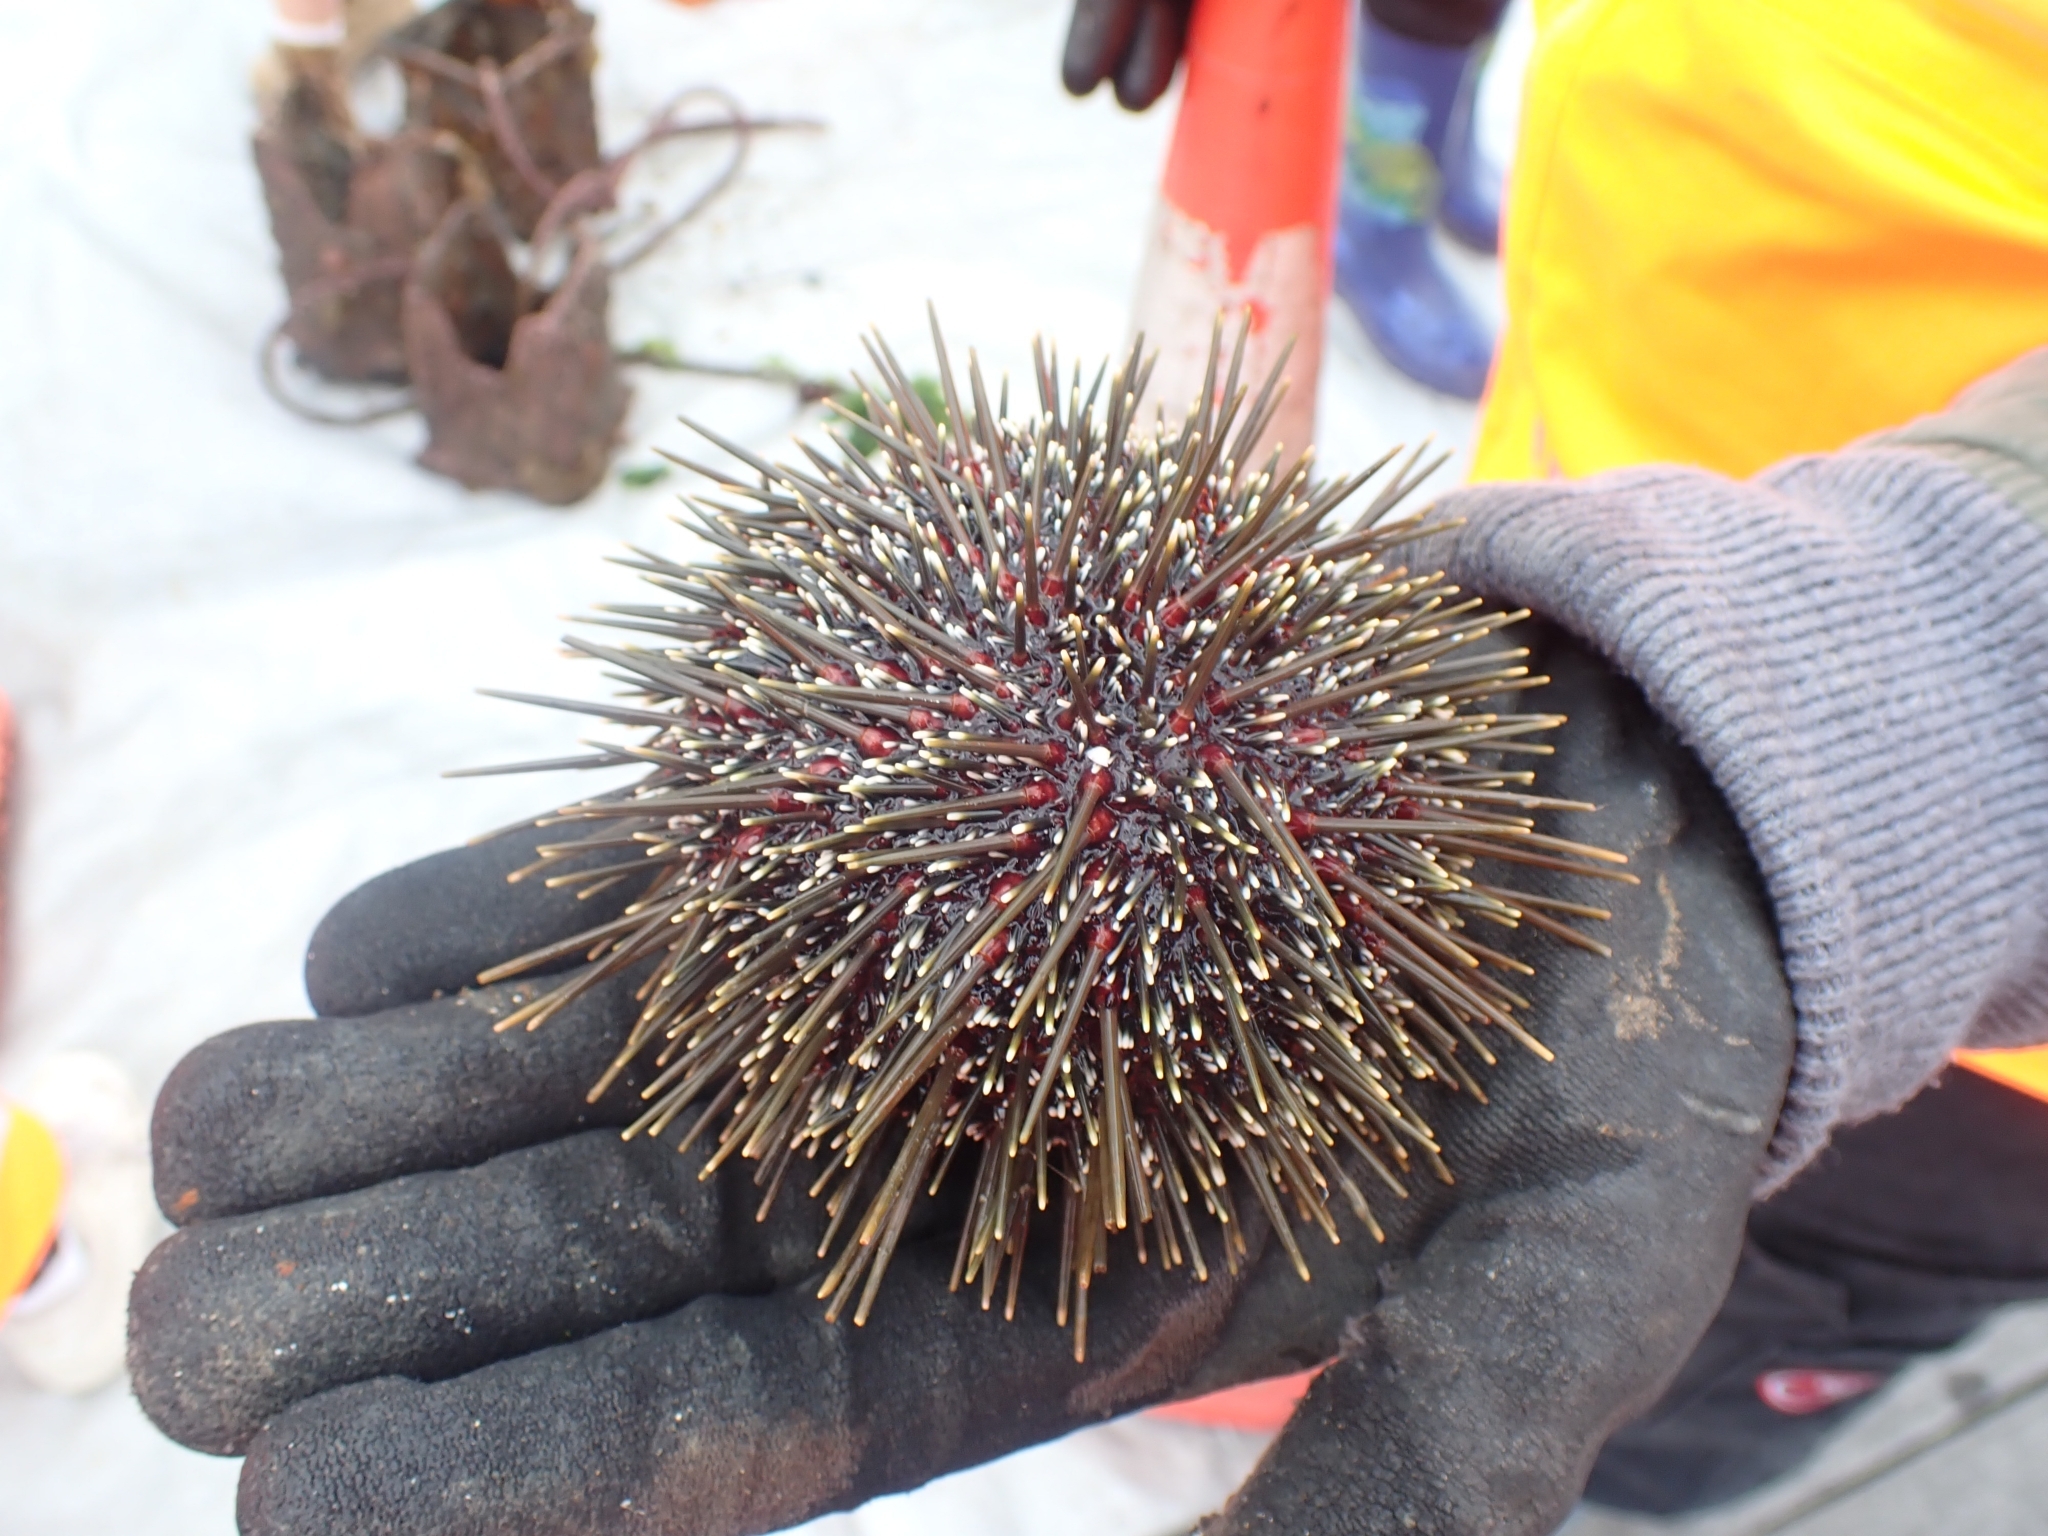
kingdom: Animalia
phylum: Echinodermata
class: Echinoidea
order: Camarodonta
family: Echinometridae
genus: Evechinus
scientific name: Evechinus chloroticus
